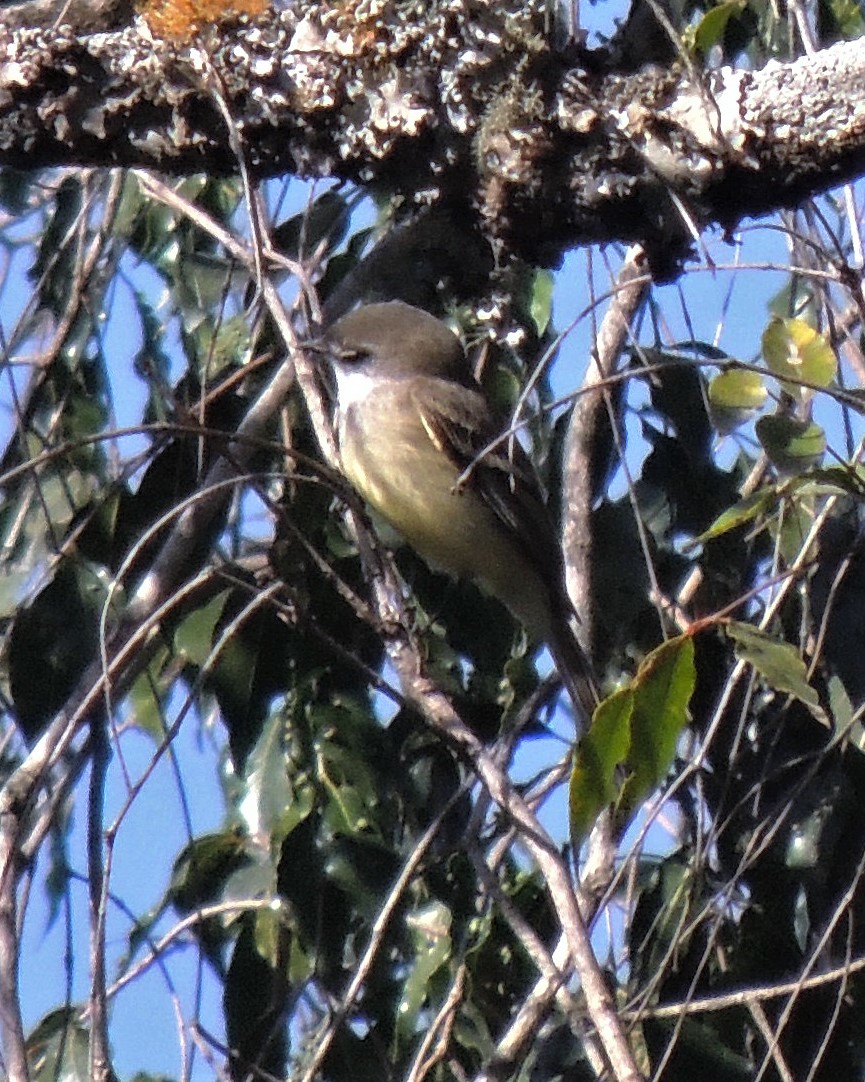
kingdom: Animalia
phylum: Chordata
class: Aves
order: Passeriformes
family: Tyrannidae
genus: Mecocerculus
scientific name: Mecocerculus leucophrys
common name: White-throated tyrannulet
